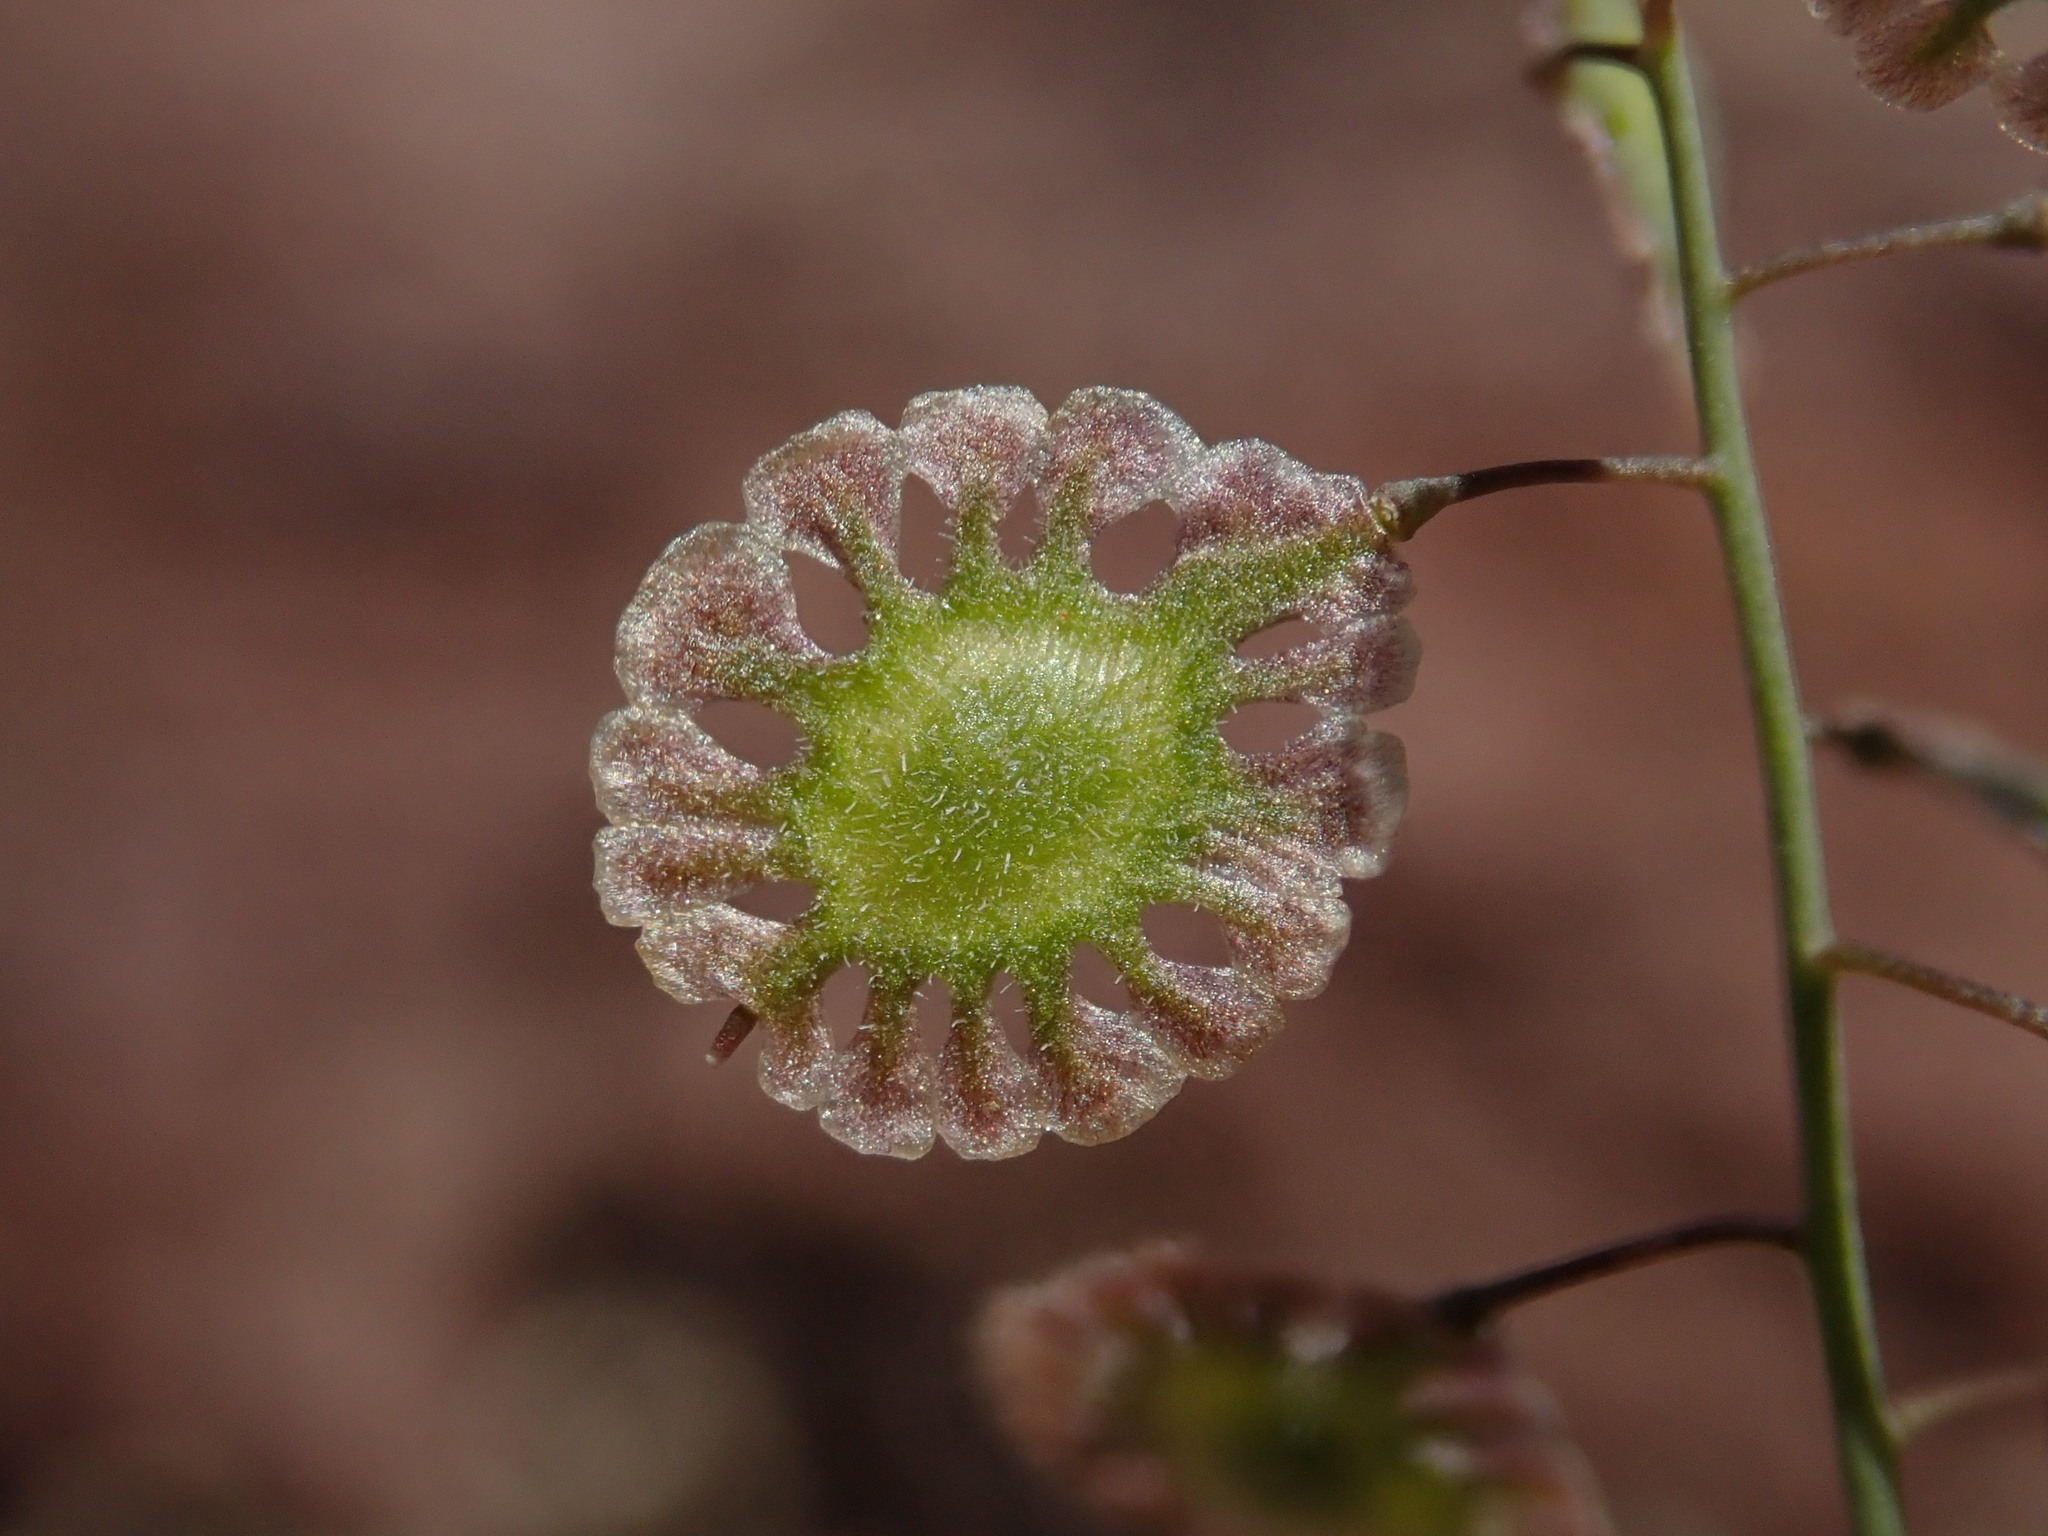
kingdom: Plantae
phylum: Tracheophyta
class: Magnoliopsida
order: Brassicales
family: Brassicaceae
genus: Thysanocarpus
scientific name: Thysanocarpus curvipes
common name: Sand fringepod
